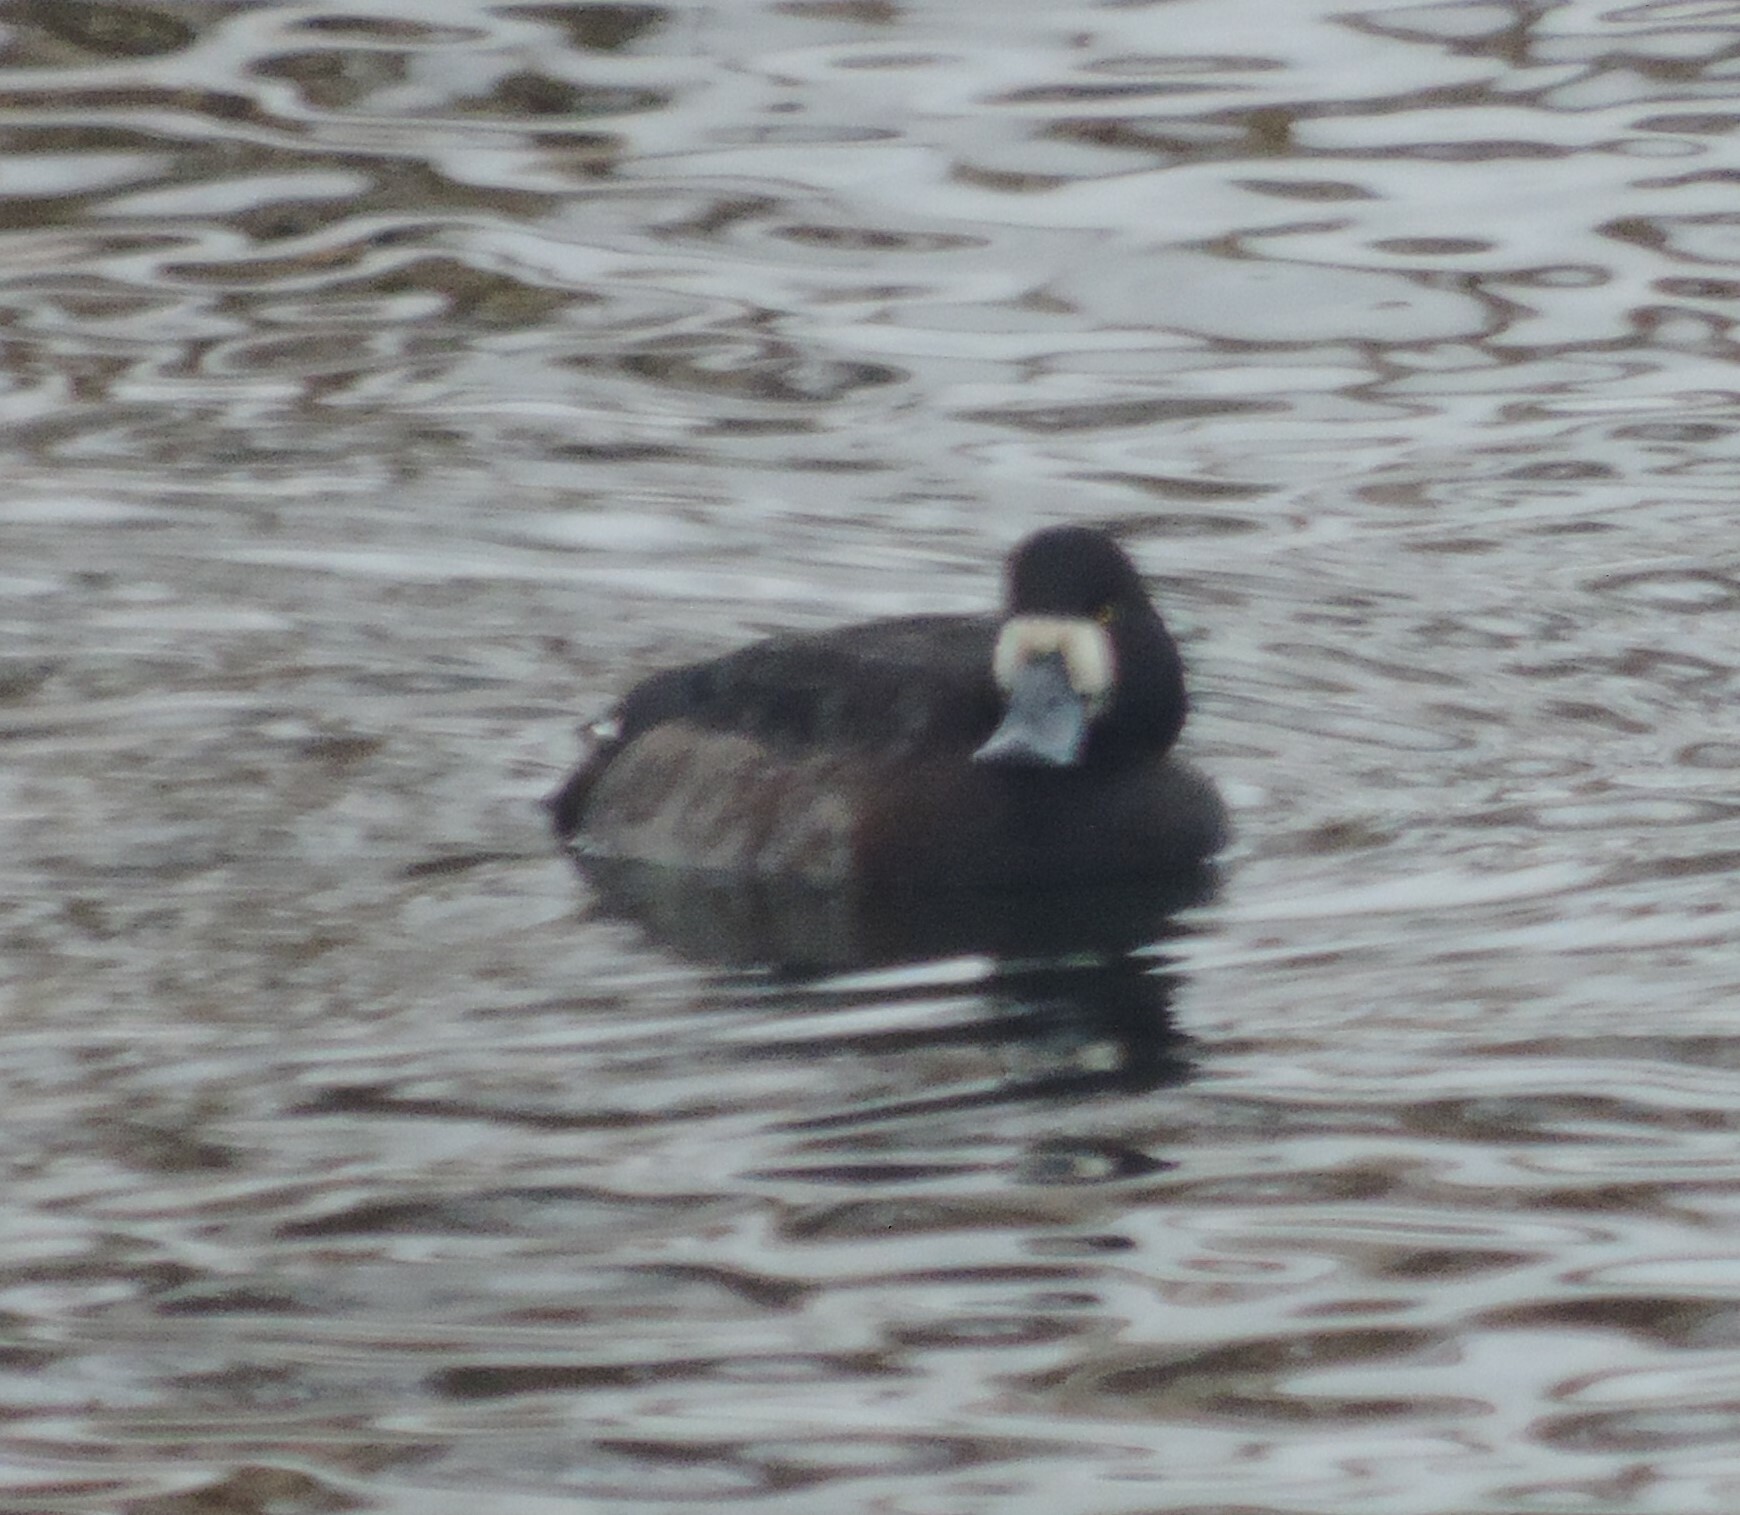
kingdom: Animalia
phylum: Chordata
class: Aves
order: Anseriformes
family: Anatidae
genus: Aythya
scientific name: Aythya marila
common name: Greater scaup
